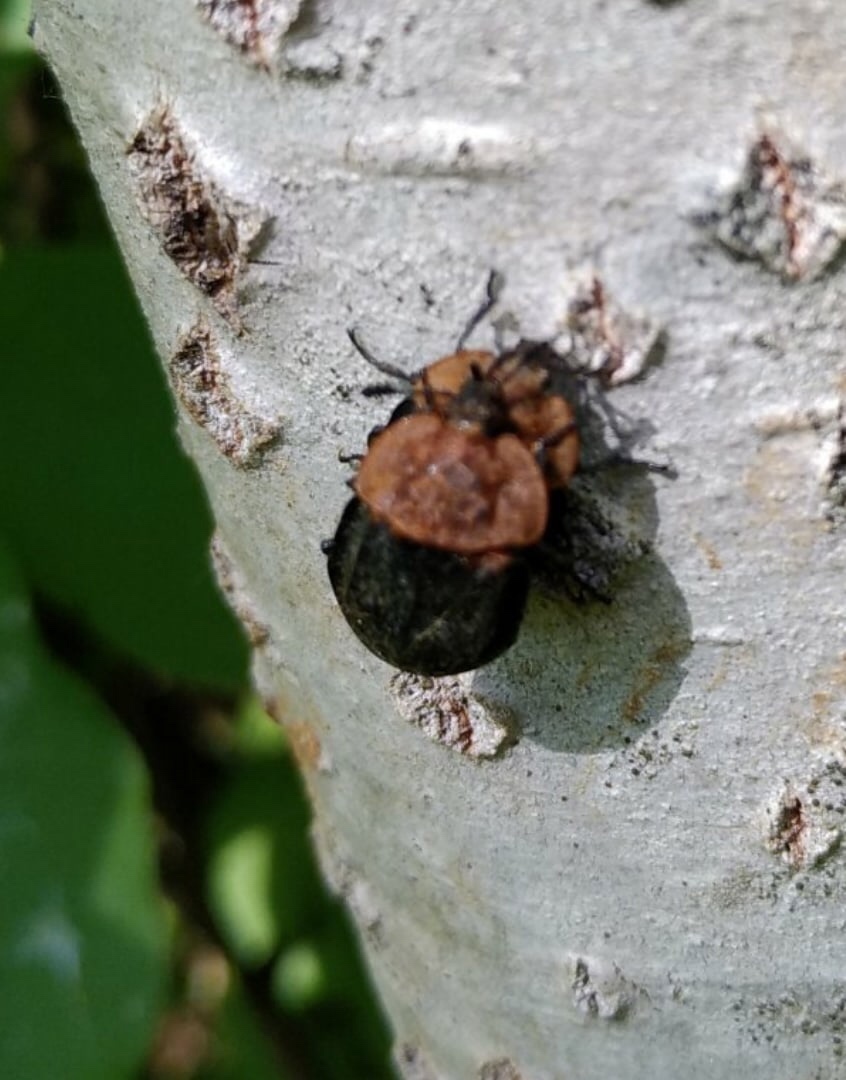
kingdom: Animalia
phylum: Arthropoda
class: Insecta
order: Coleoptera
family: Staphylinidae
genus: Oiceoptoma
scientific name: Oiceoptoma thoracicum
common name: Red-breasted carrion beetle
